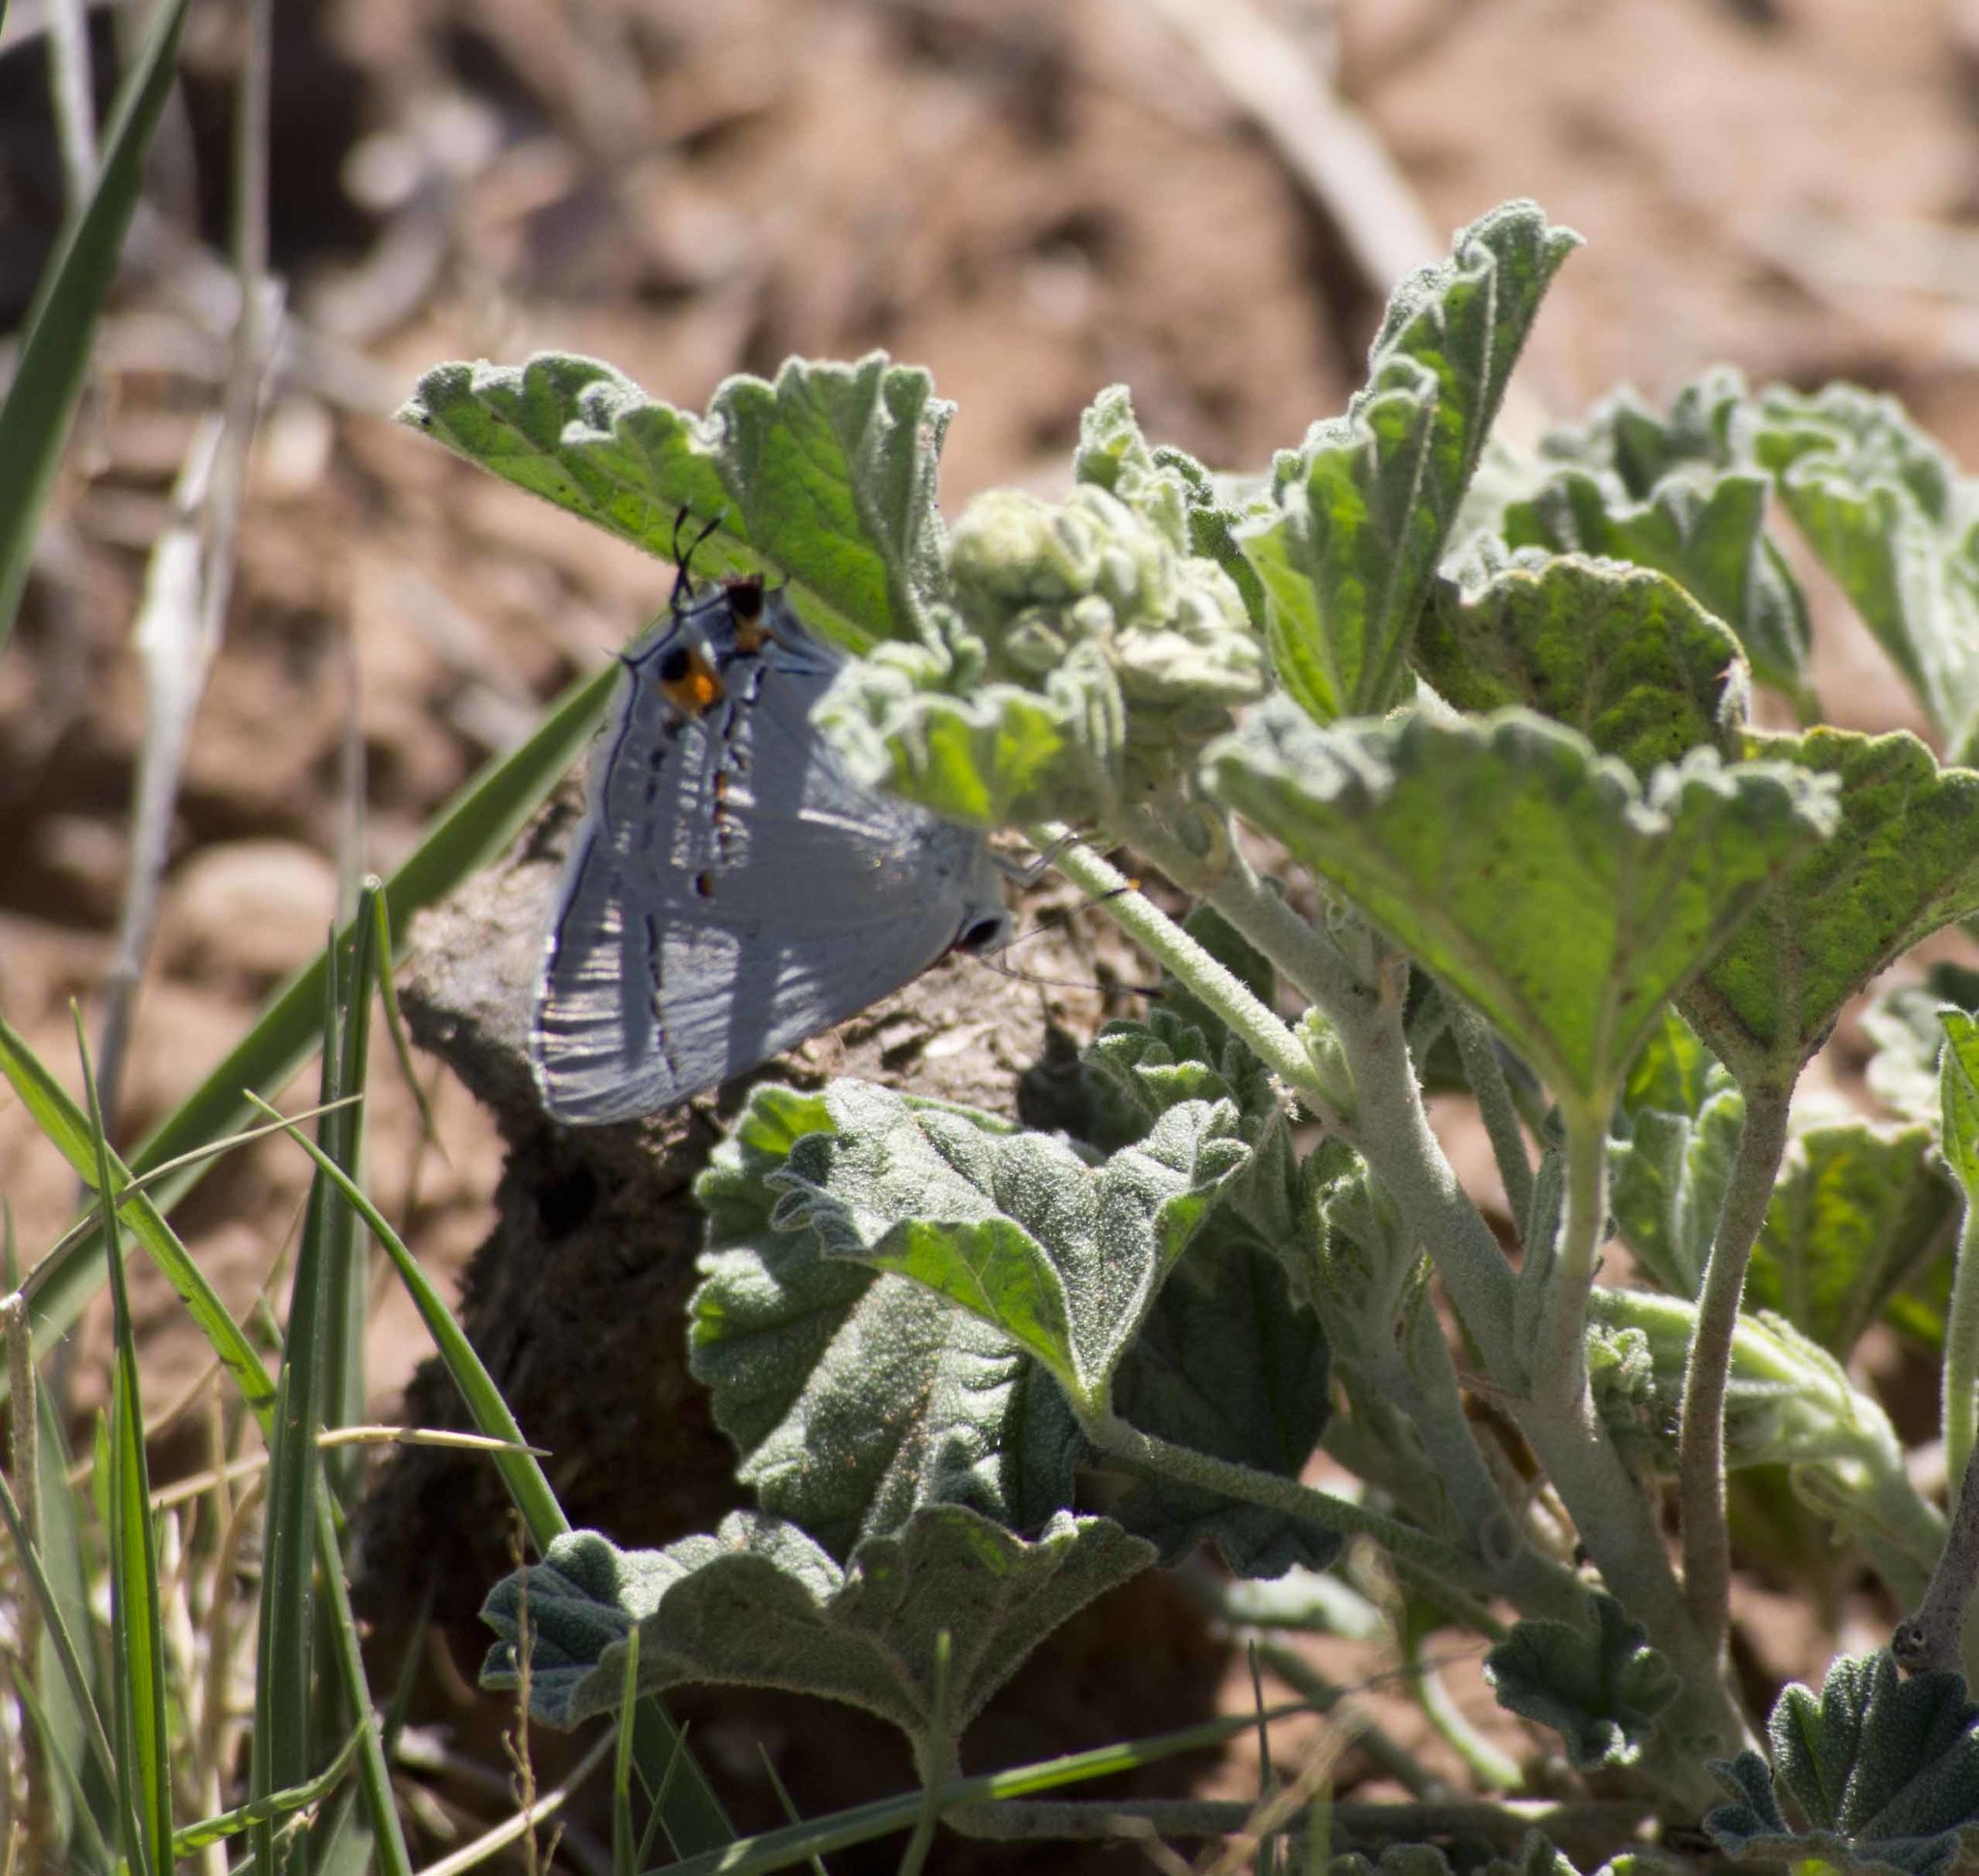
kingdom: Animalia
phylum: Arthropoda
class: Insecta
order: Lepidoptera
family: Lycaenidae
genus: Strymon
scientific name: Strymon melinus
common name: Gray hairstreak
